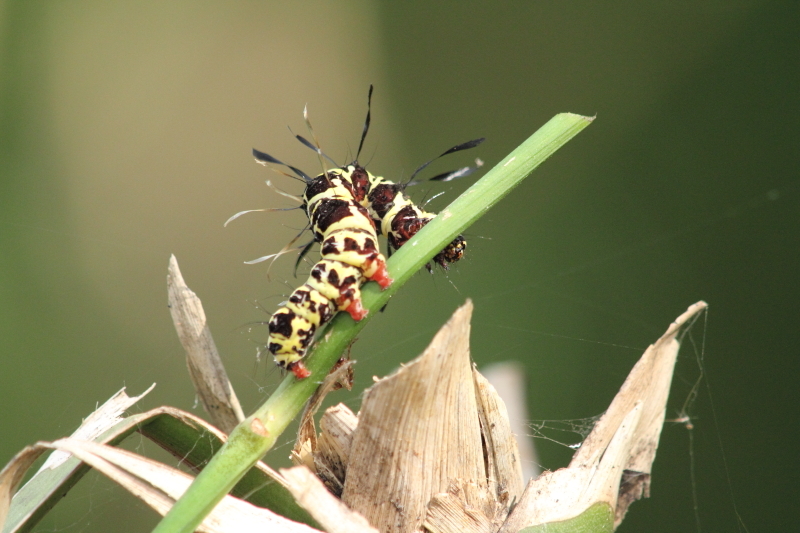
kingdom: Animalia
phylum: Arthropoda
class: Insecta
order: Lepidoptera
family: Erebidae
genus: Tinolius
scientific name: Tinolius eburneigutta
